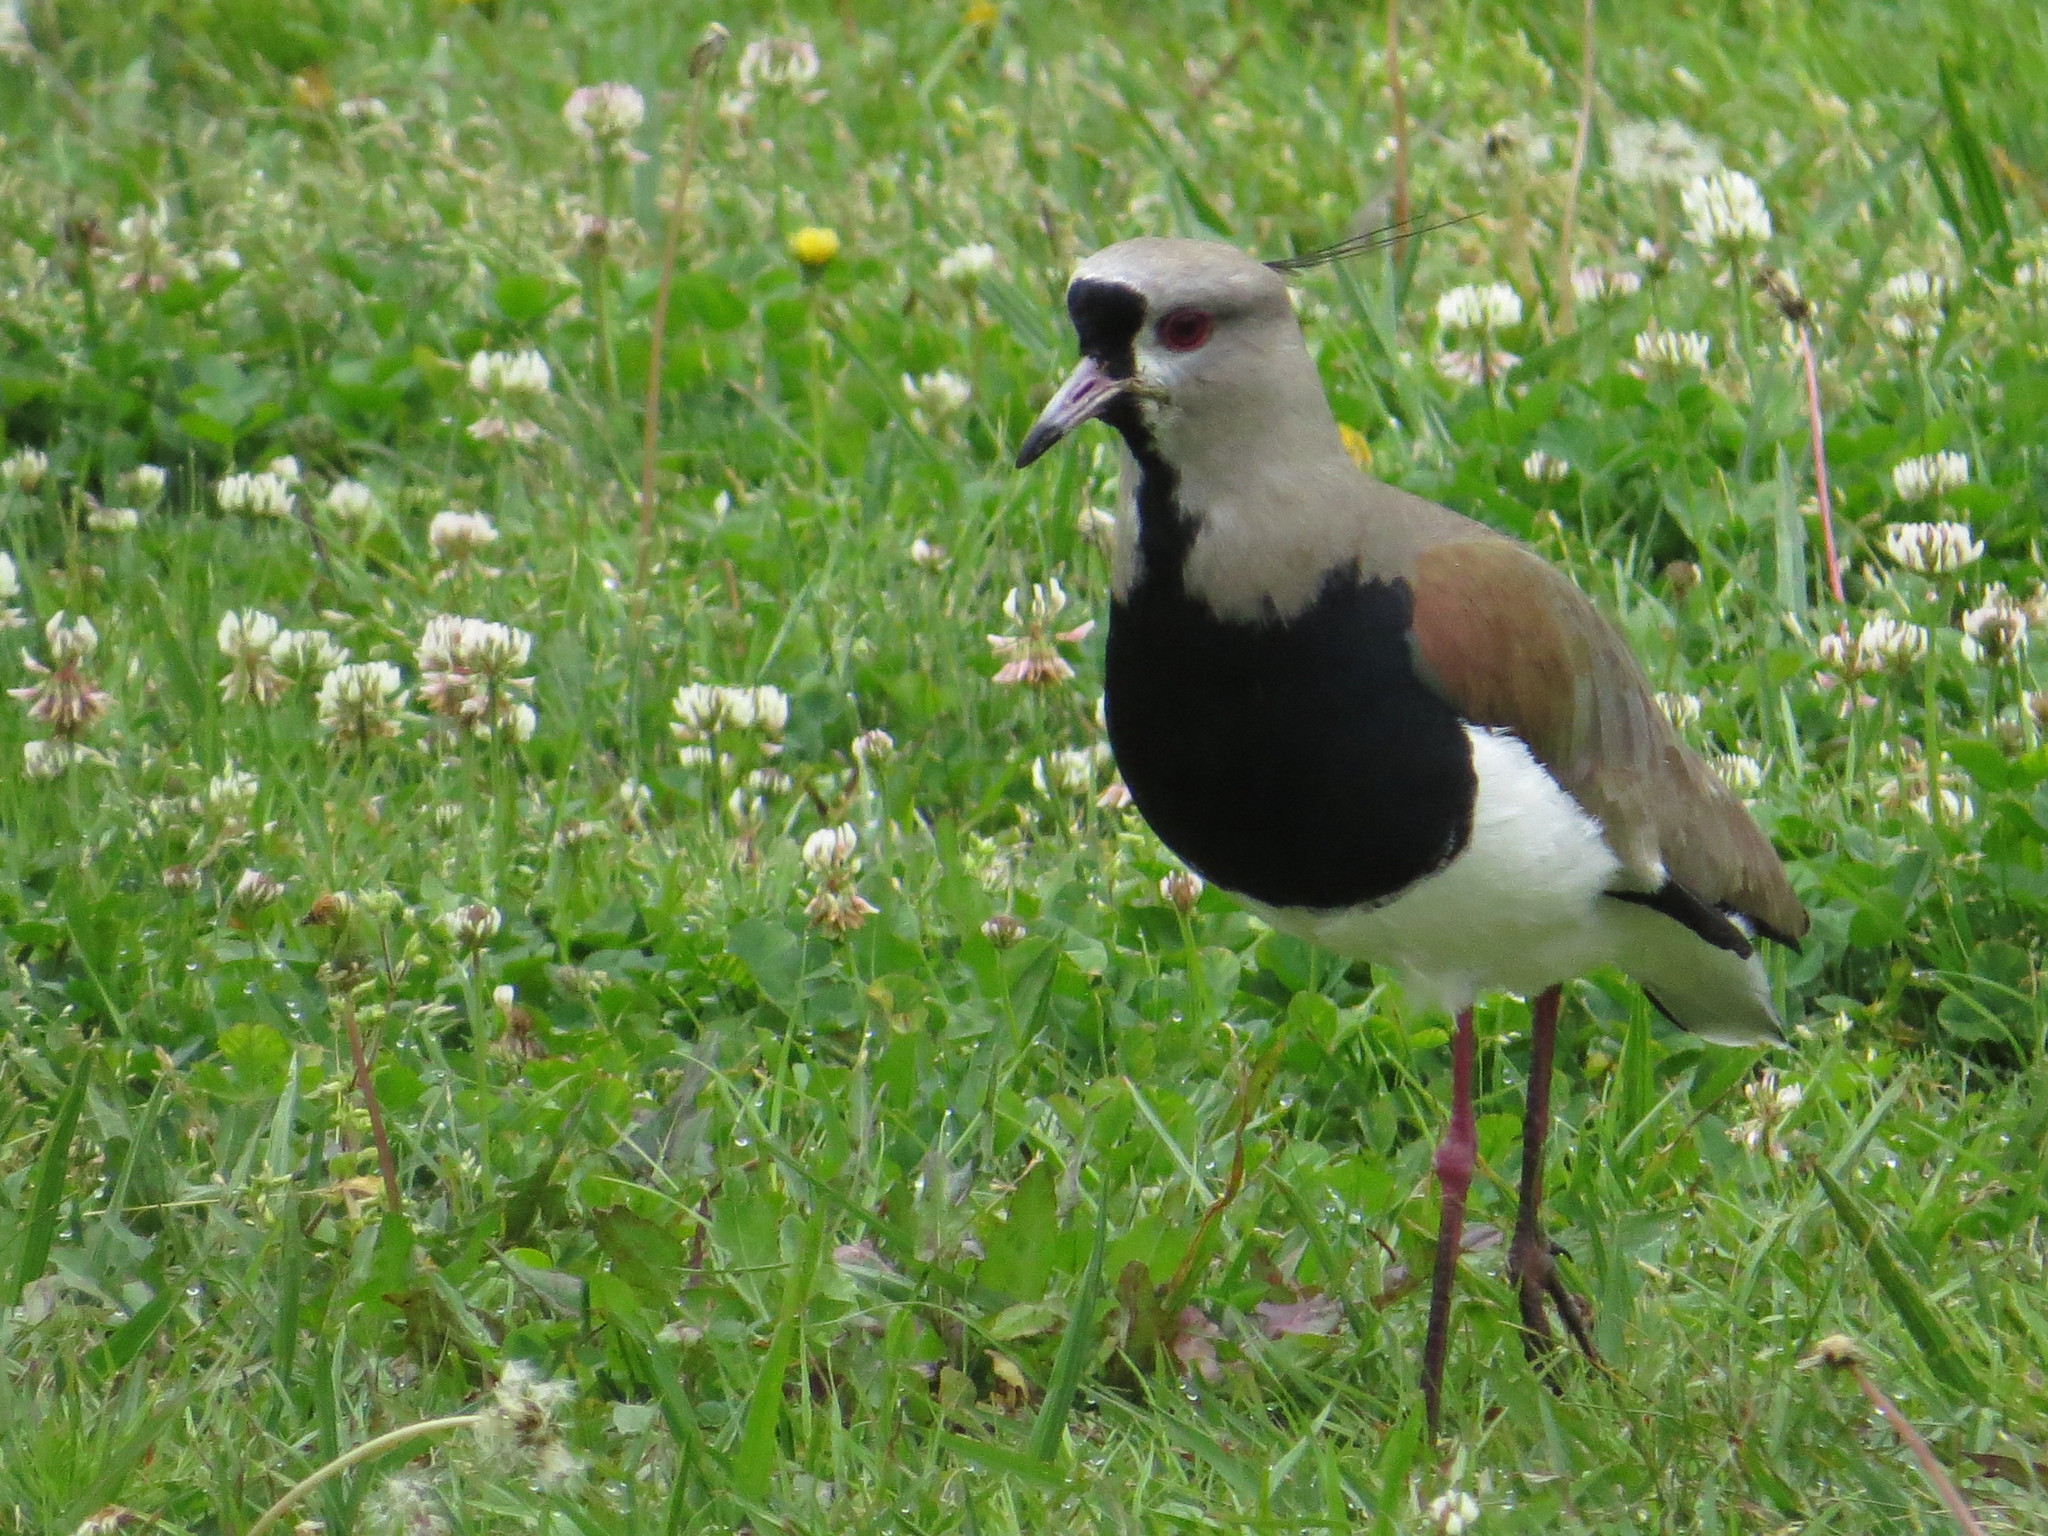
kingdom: Animalia
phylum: Chordata
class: Aves
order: Charadriiformes
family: Charadriidae
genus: Vanellus
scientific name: Vanellus chilensis
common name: Southern lapwing
